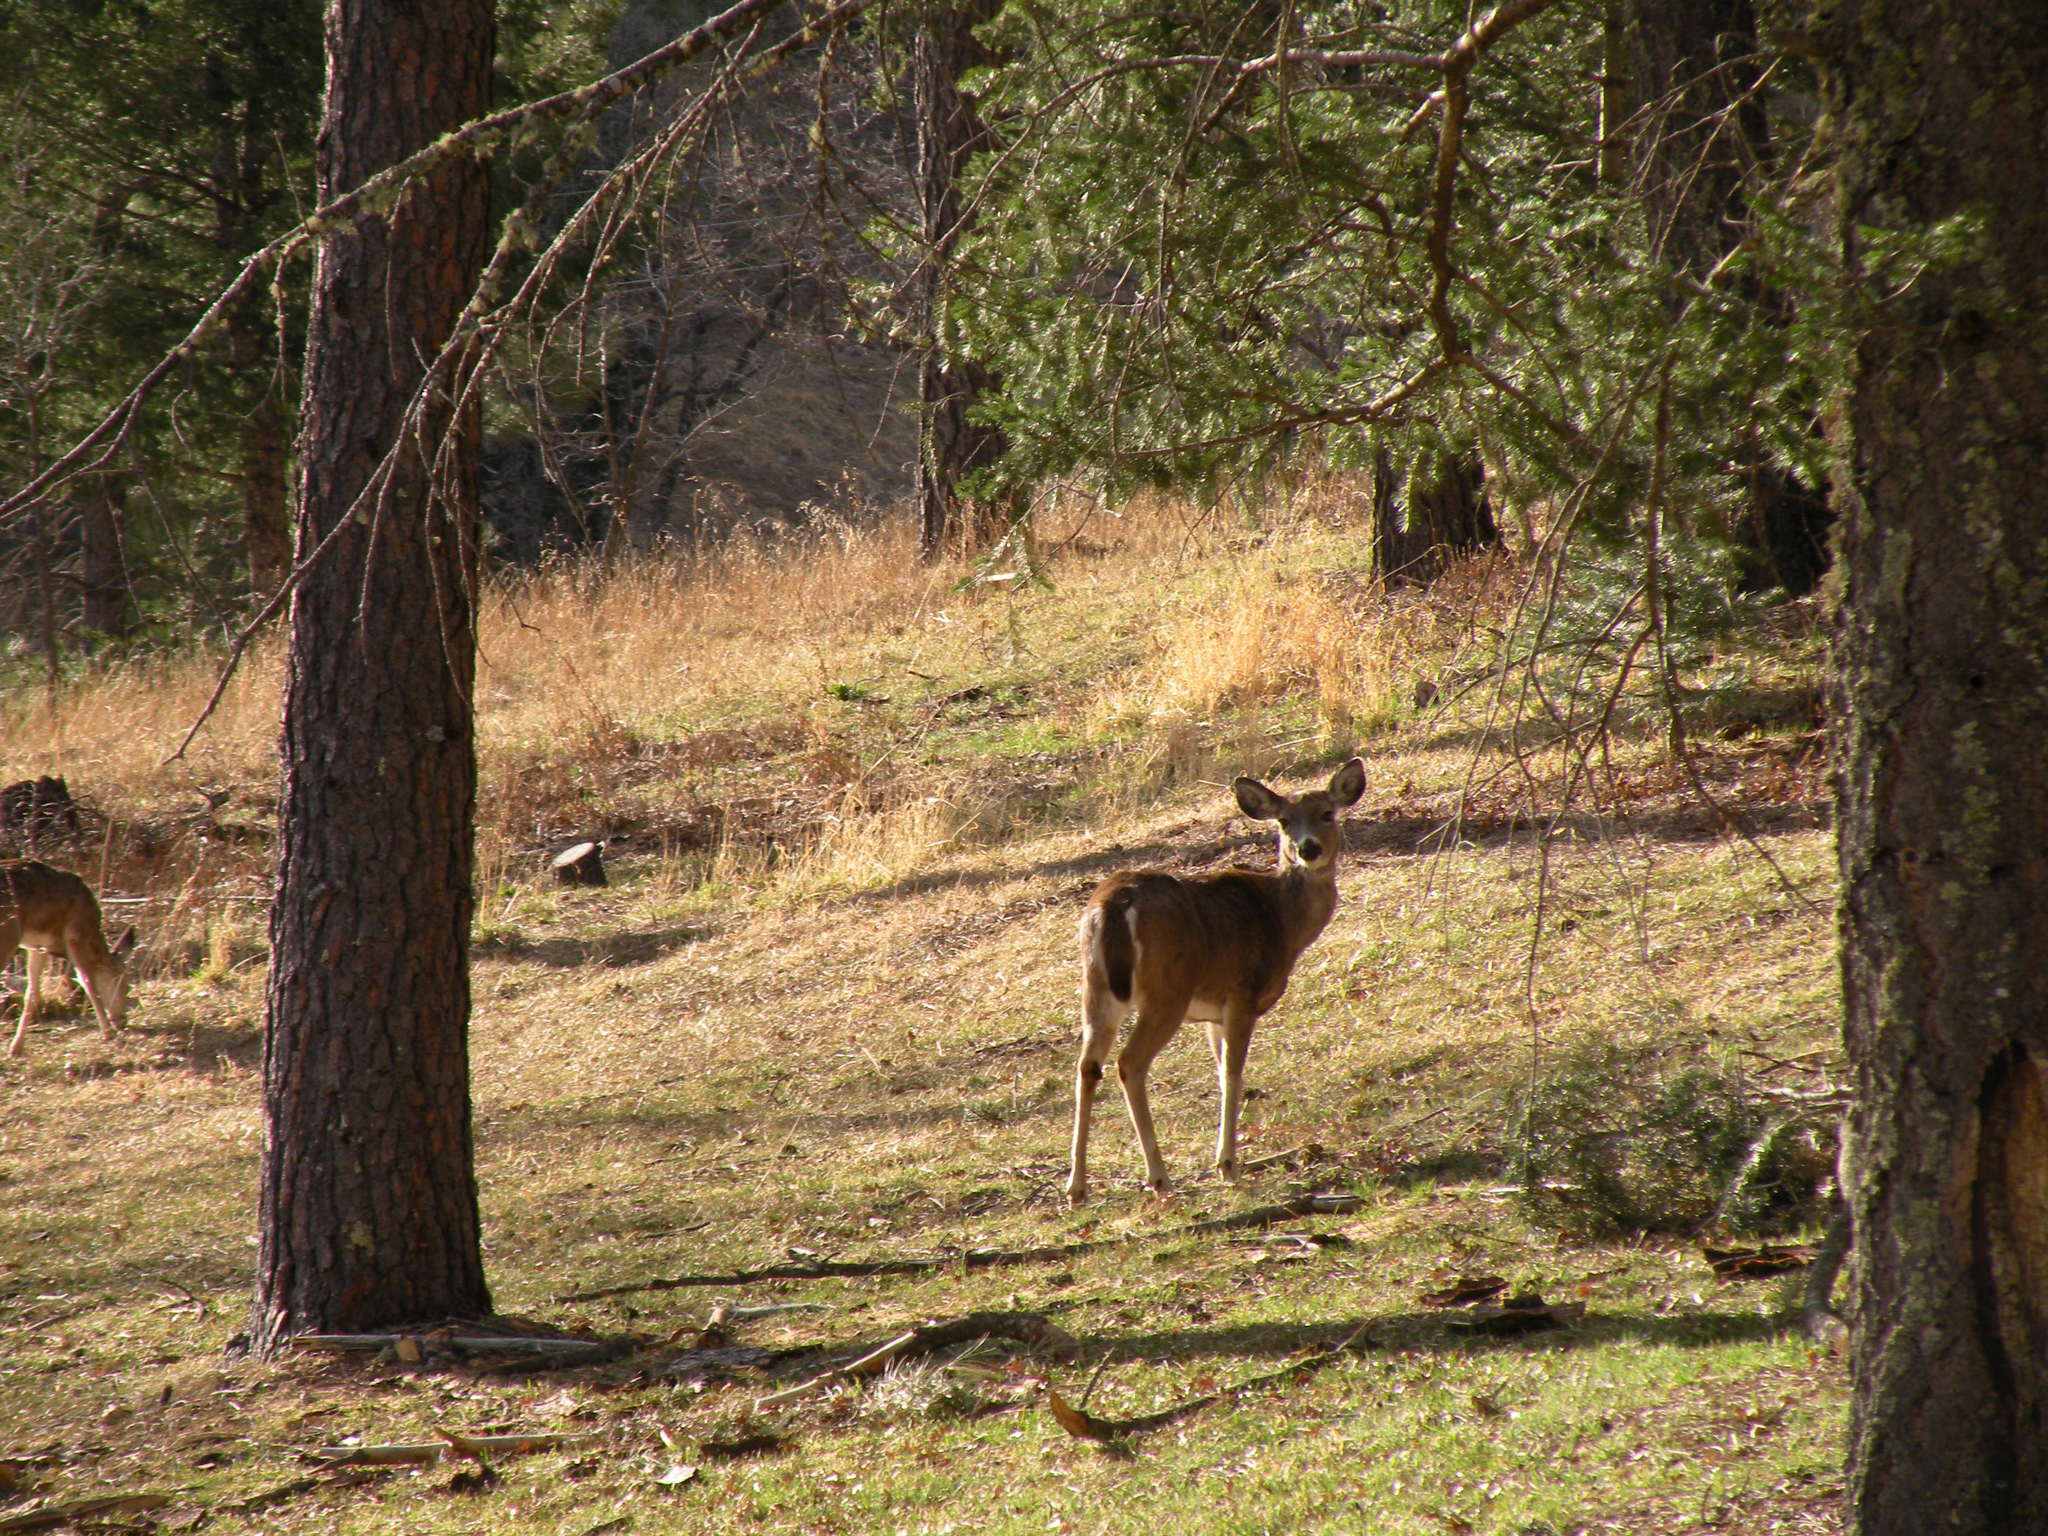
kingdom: Animalia
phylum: Chordata
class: Mammalia
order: Artiodactyla
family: Cervidae
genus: Odocoileus
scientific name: Odocoileus virginianus
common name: White-tailed deer
